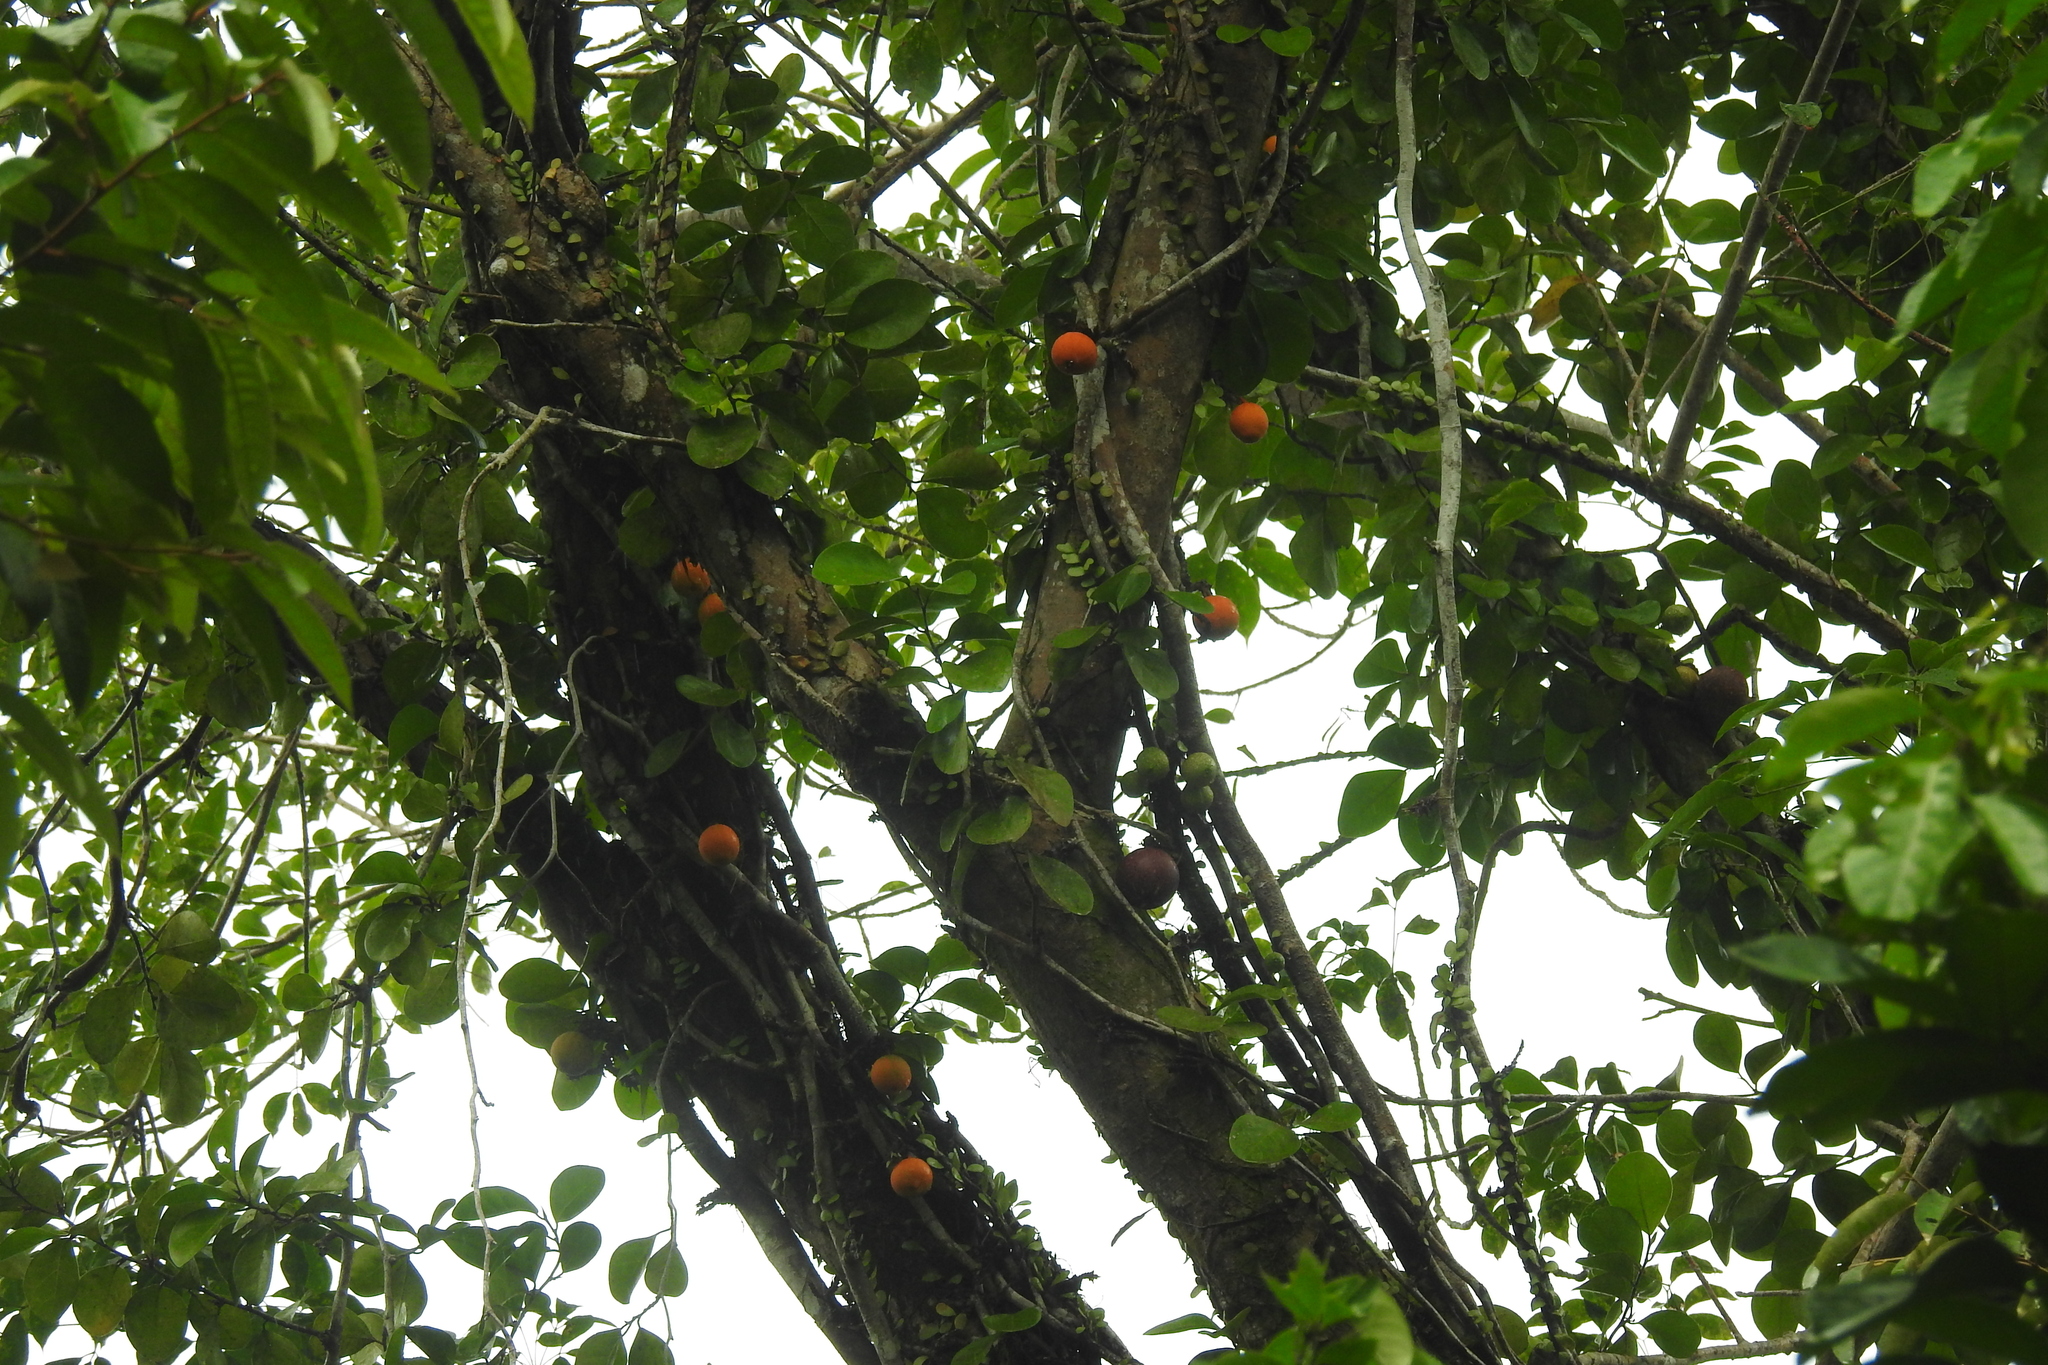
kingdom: Plantae
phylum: Tracheophyta
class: Magnoliopsida
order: Rosales
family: Moraceae
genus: Ficus
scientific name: Ficus punctata
